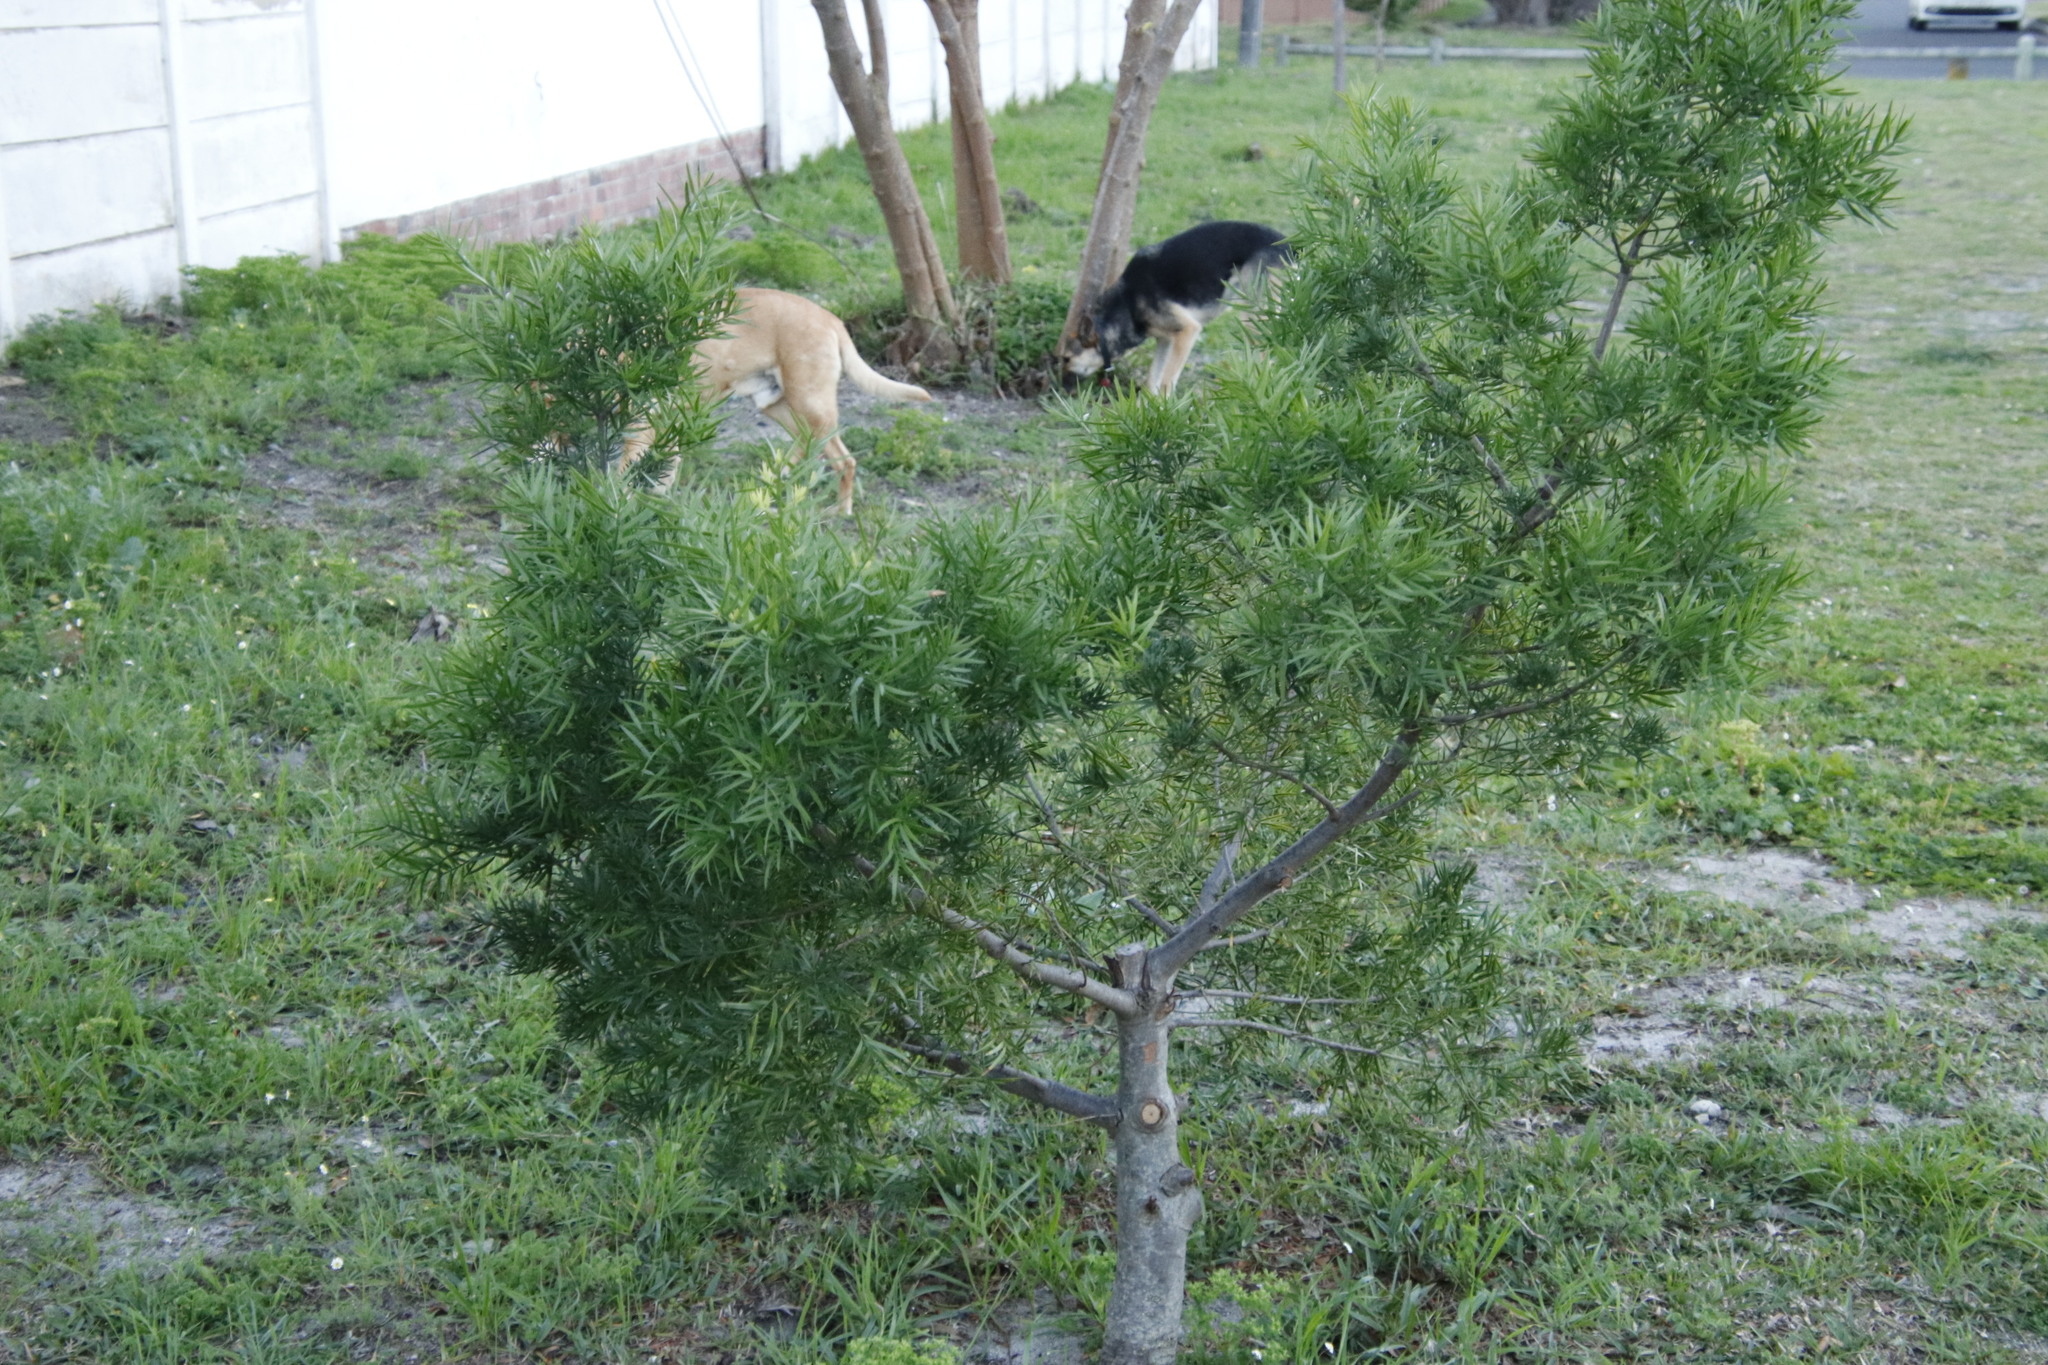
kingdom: Plantae
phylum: Tracheophyta
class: Pinopsida
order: Pinales
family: Podocarpaceae
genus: Afrocarpus
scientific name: Afrocarpus falcatus
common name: Bastard yellowwood
